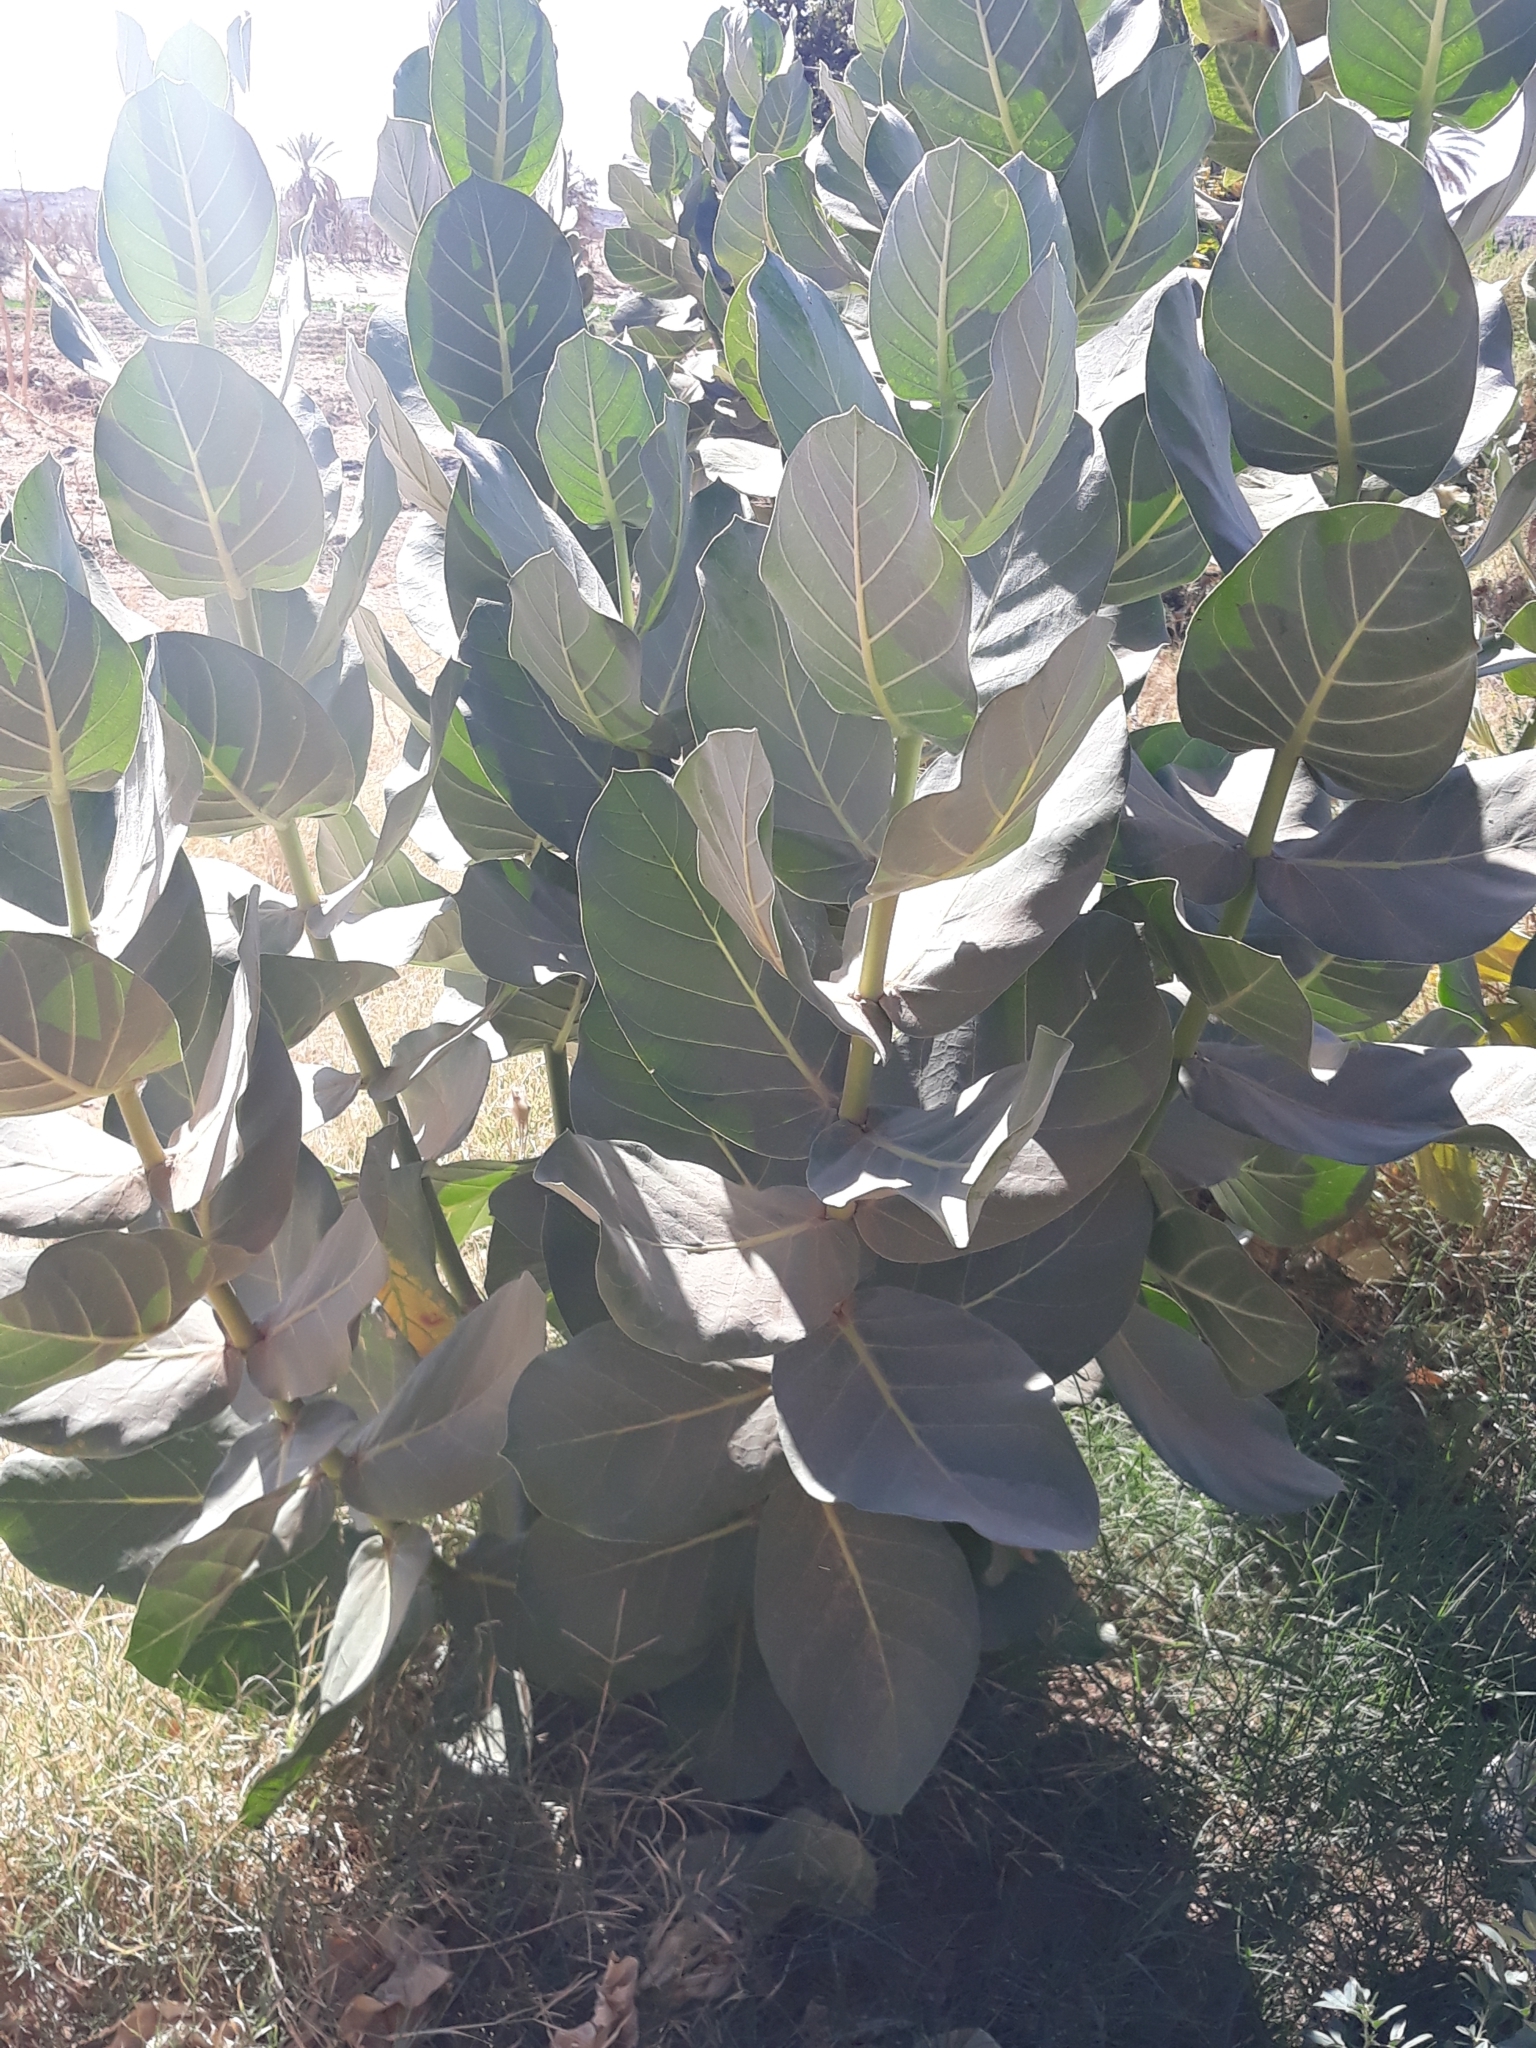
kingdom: Plantae
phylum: Tracheophyta
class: Magnoliopsida
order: Gentianales
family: Apocynaceae
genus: Calotropis
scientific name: Calotropis procera
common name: Roostertree
